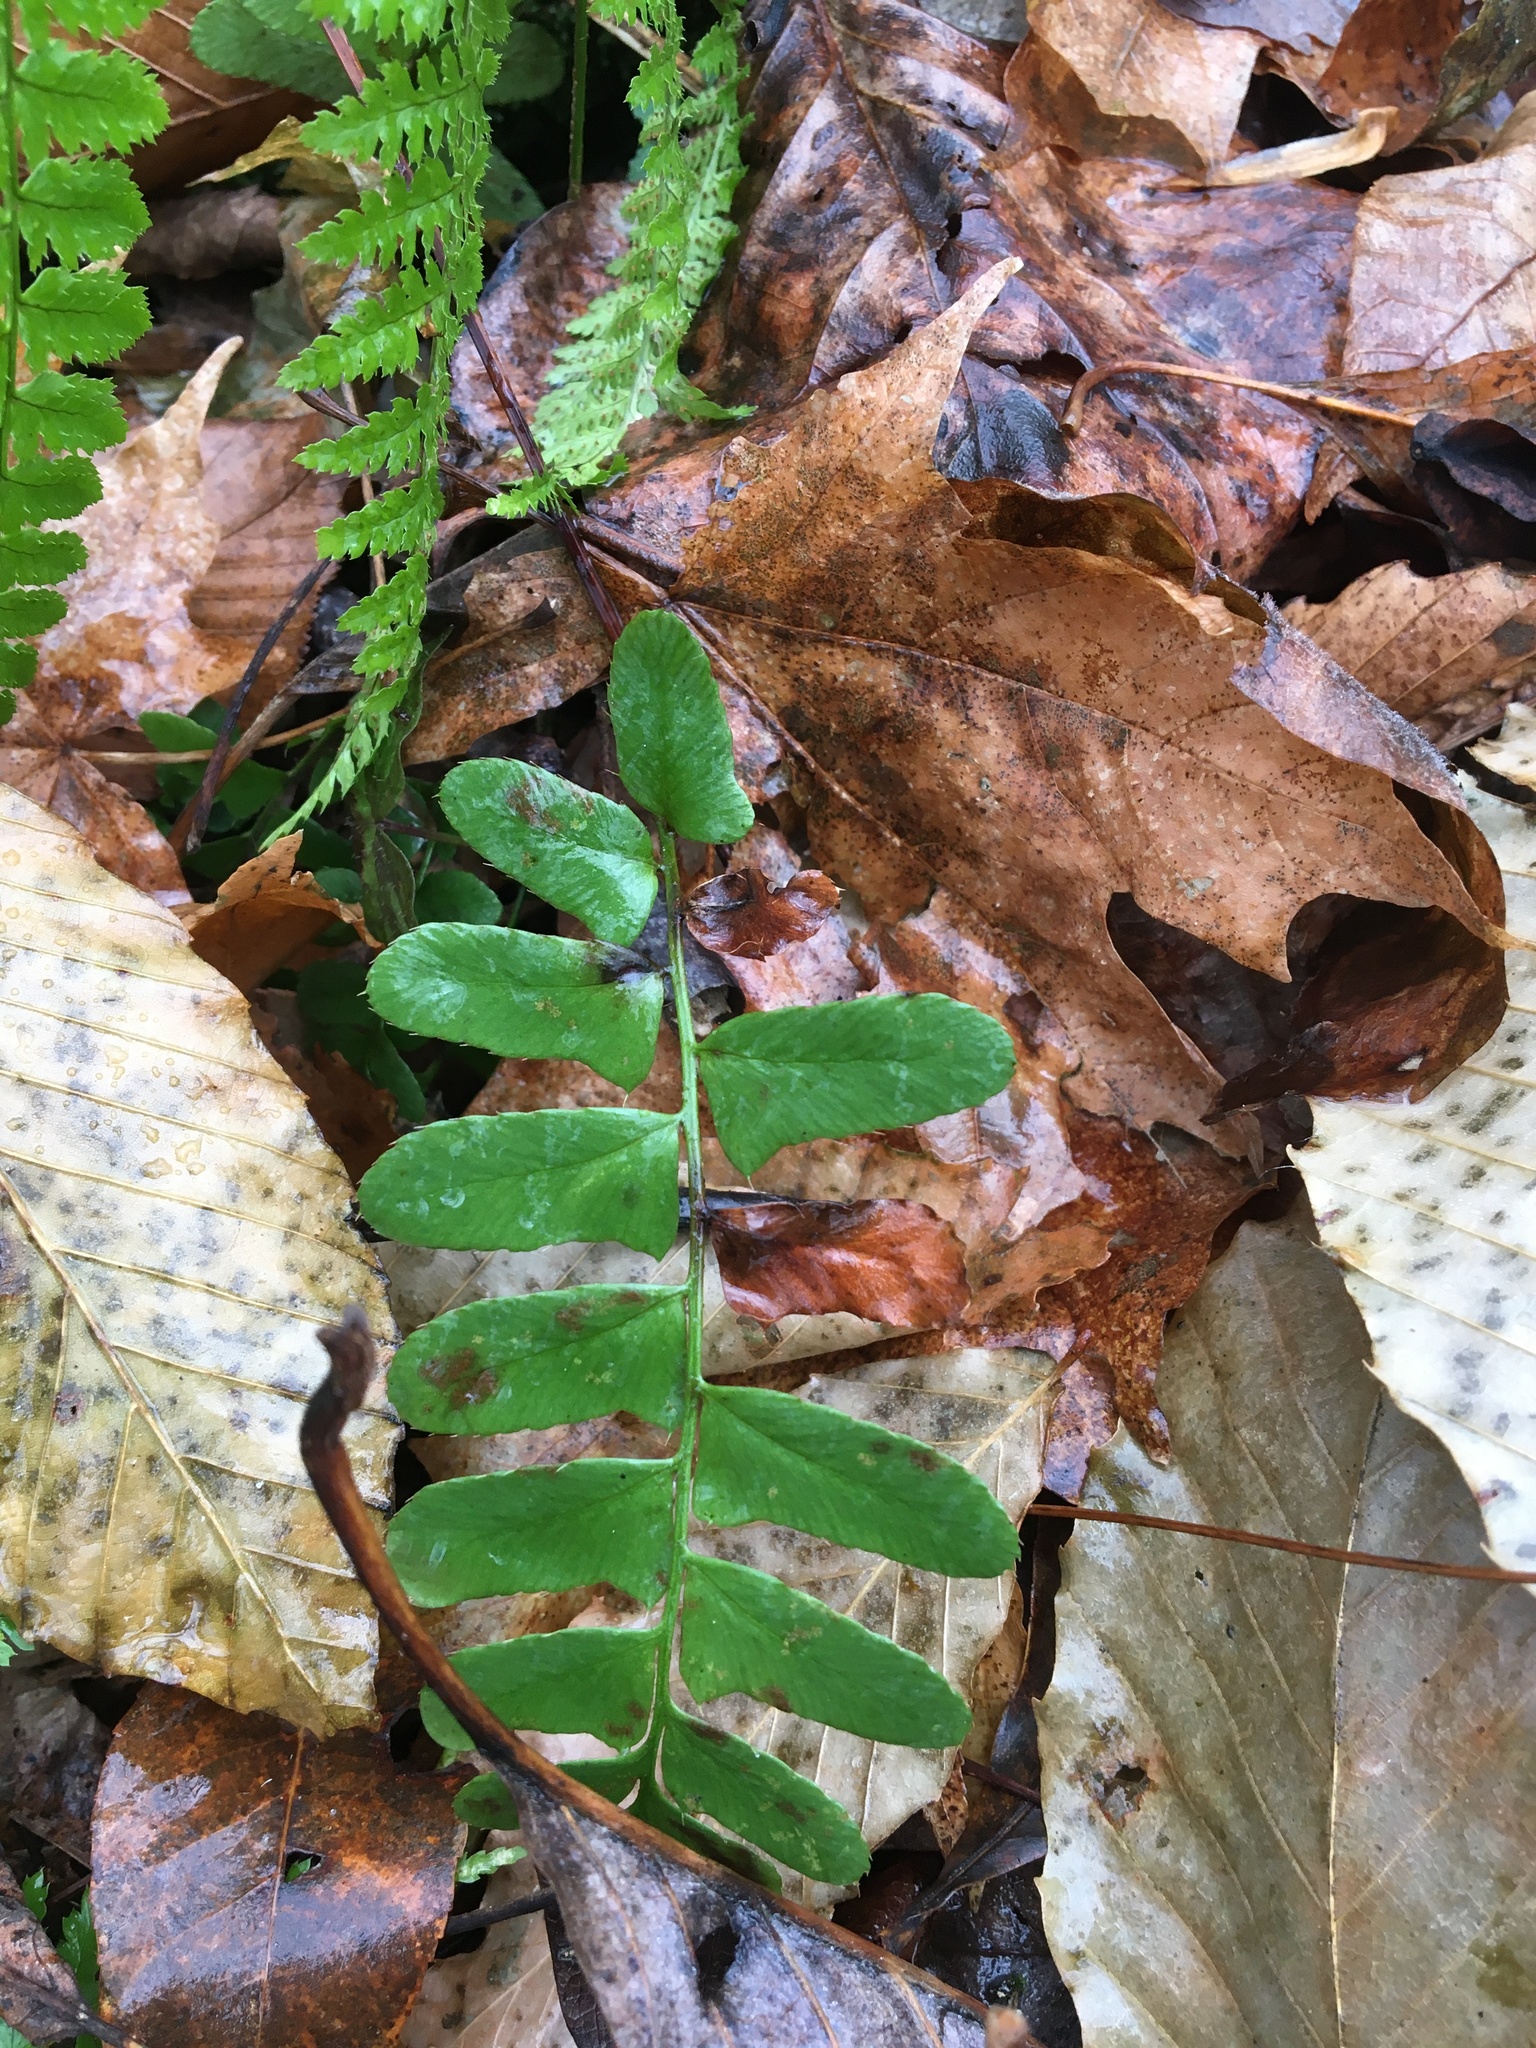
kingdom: Plantae
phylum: Tracheophyta
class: Polypodiopsida
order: Polypodiales
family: Dryopteridaceae
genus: Polystichum
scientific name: Polystichum acrostichoides
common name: Christmas fern
